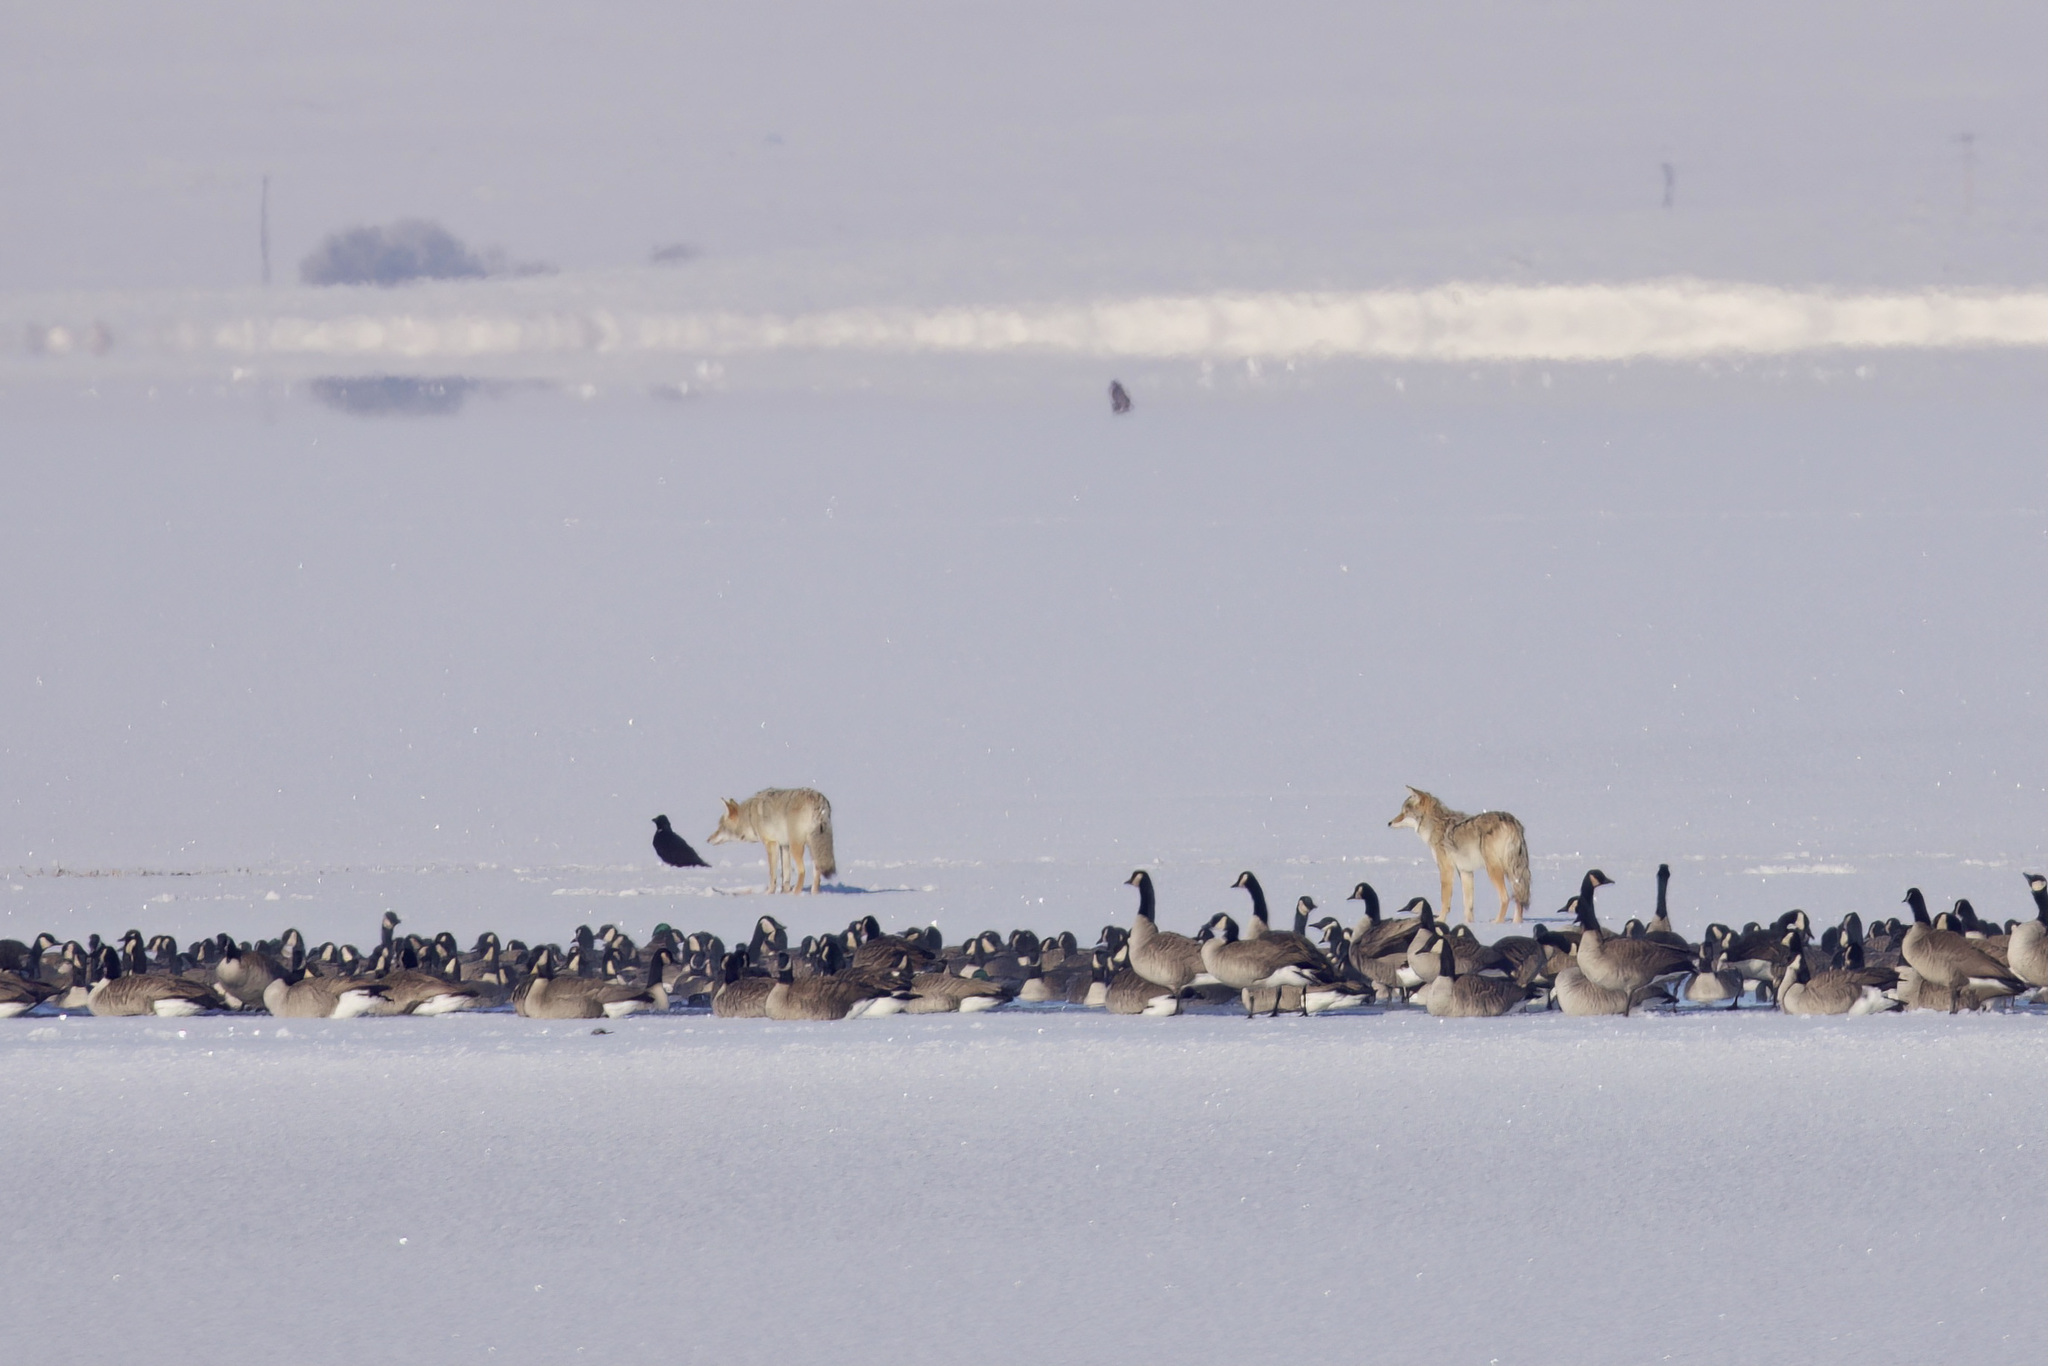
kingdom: Animalia
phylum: Chordata
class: Mammalia
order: Carnivora
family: Canidae
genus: Canis
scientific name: Canis latrans
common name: Coyote
